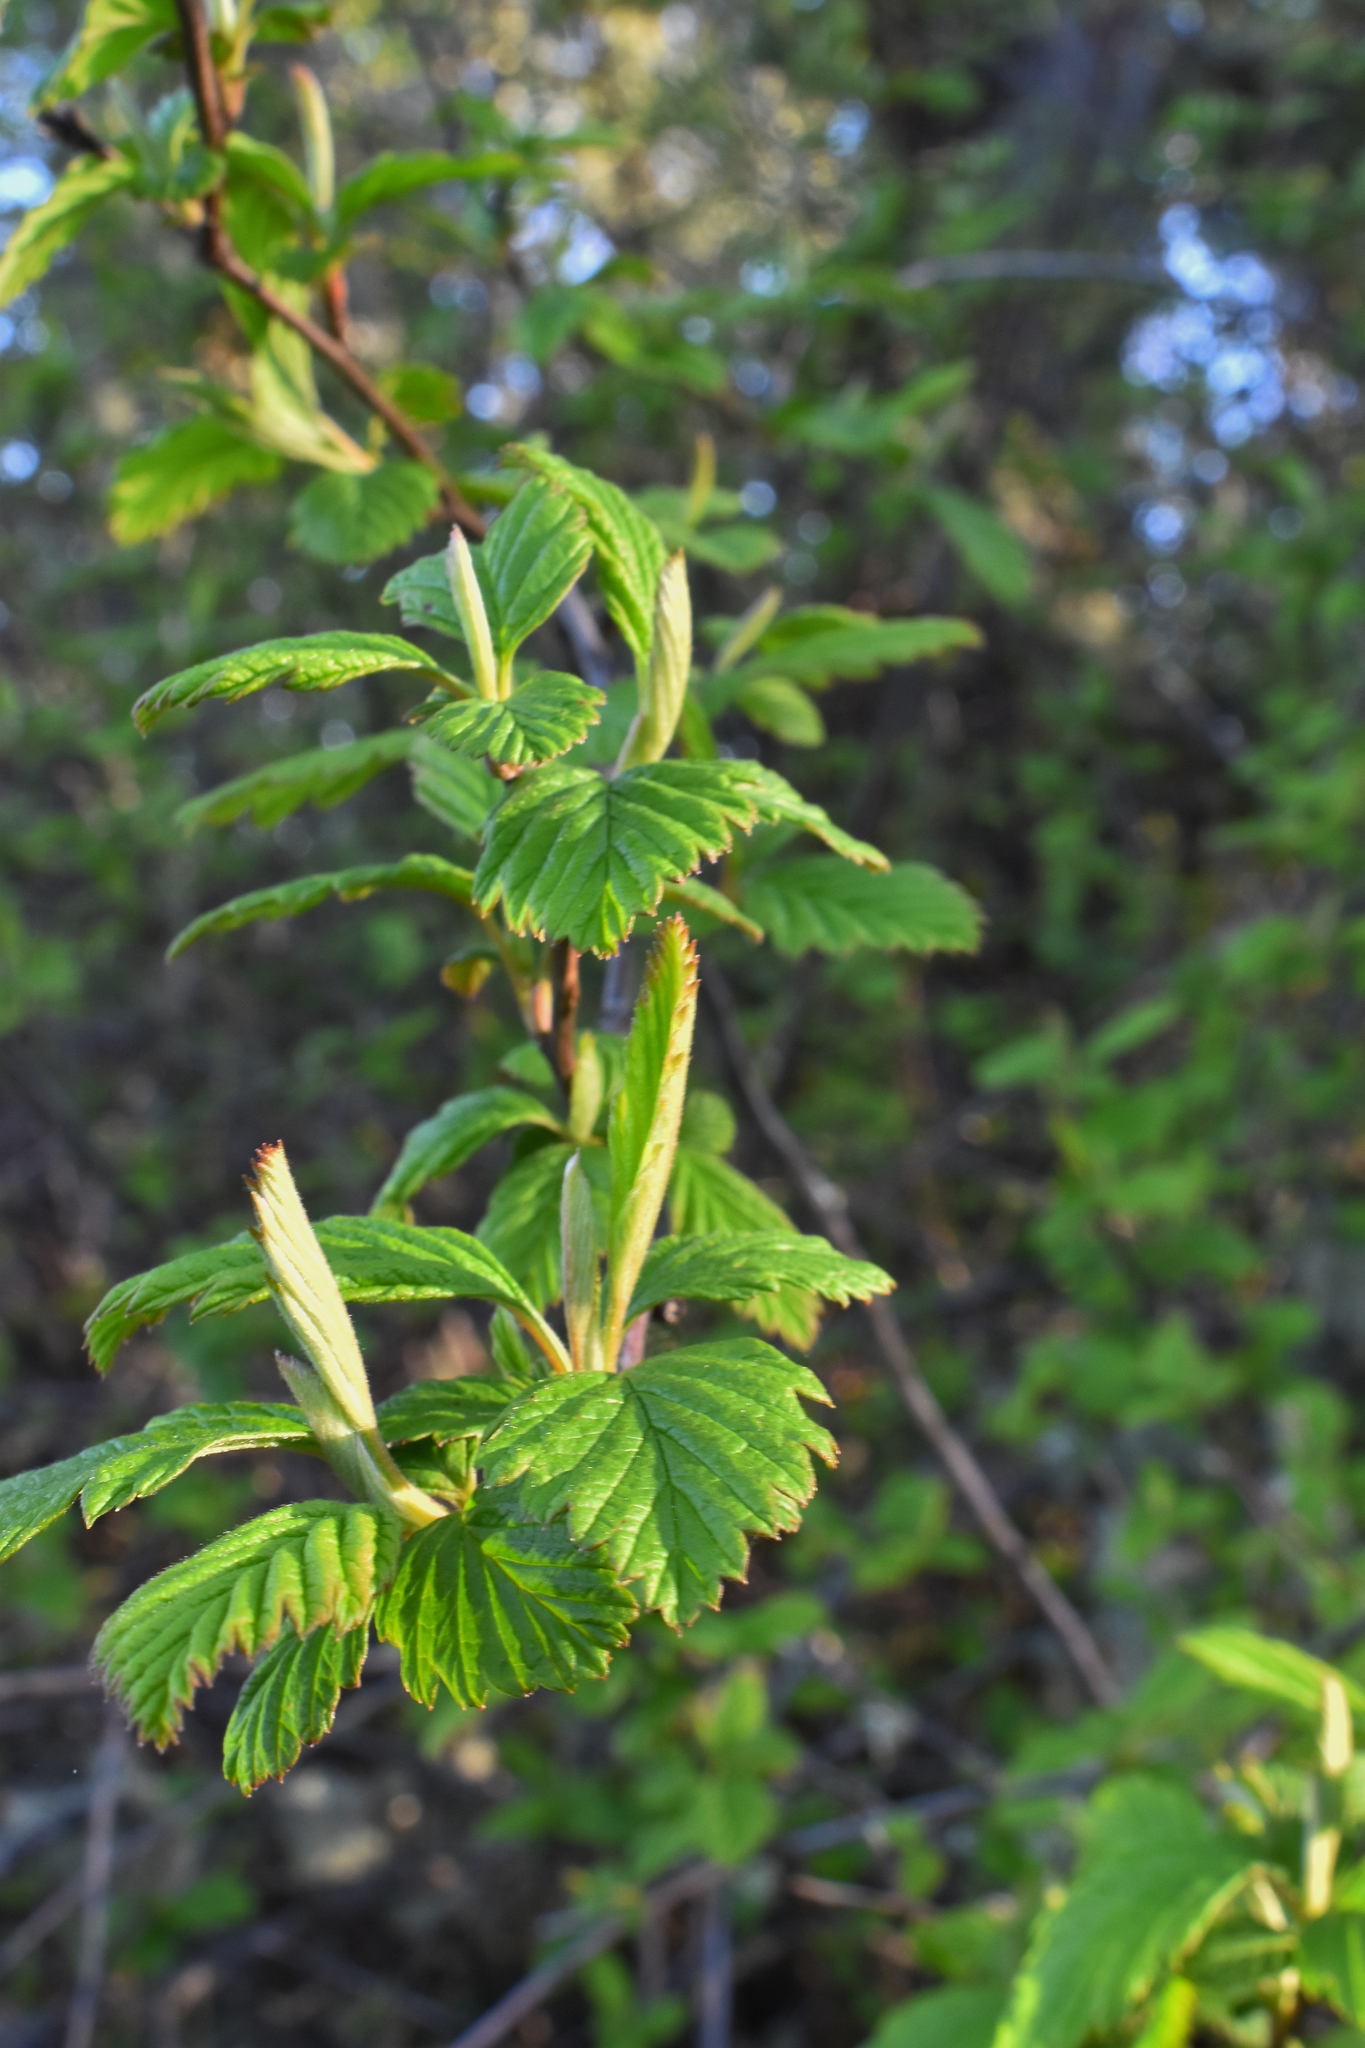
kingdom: Plantae
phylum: Tracheophyta
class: Magnoliopsida
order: Rosales
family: Rosaceae
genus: Holodiscus
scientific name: Holodiscus discolor
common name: Oceanspray
